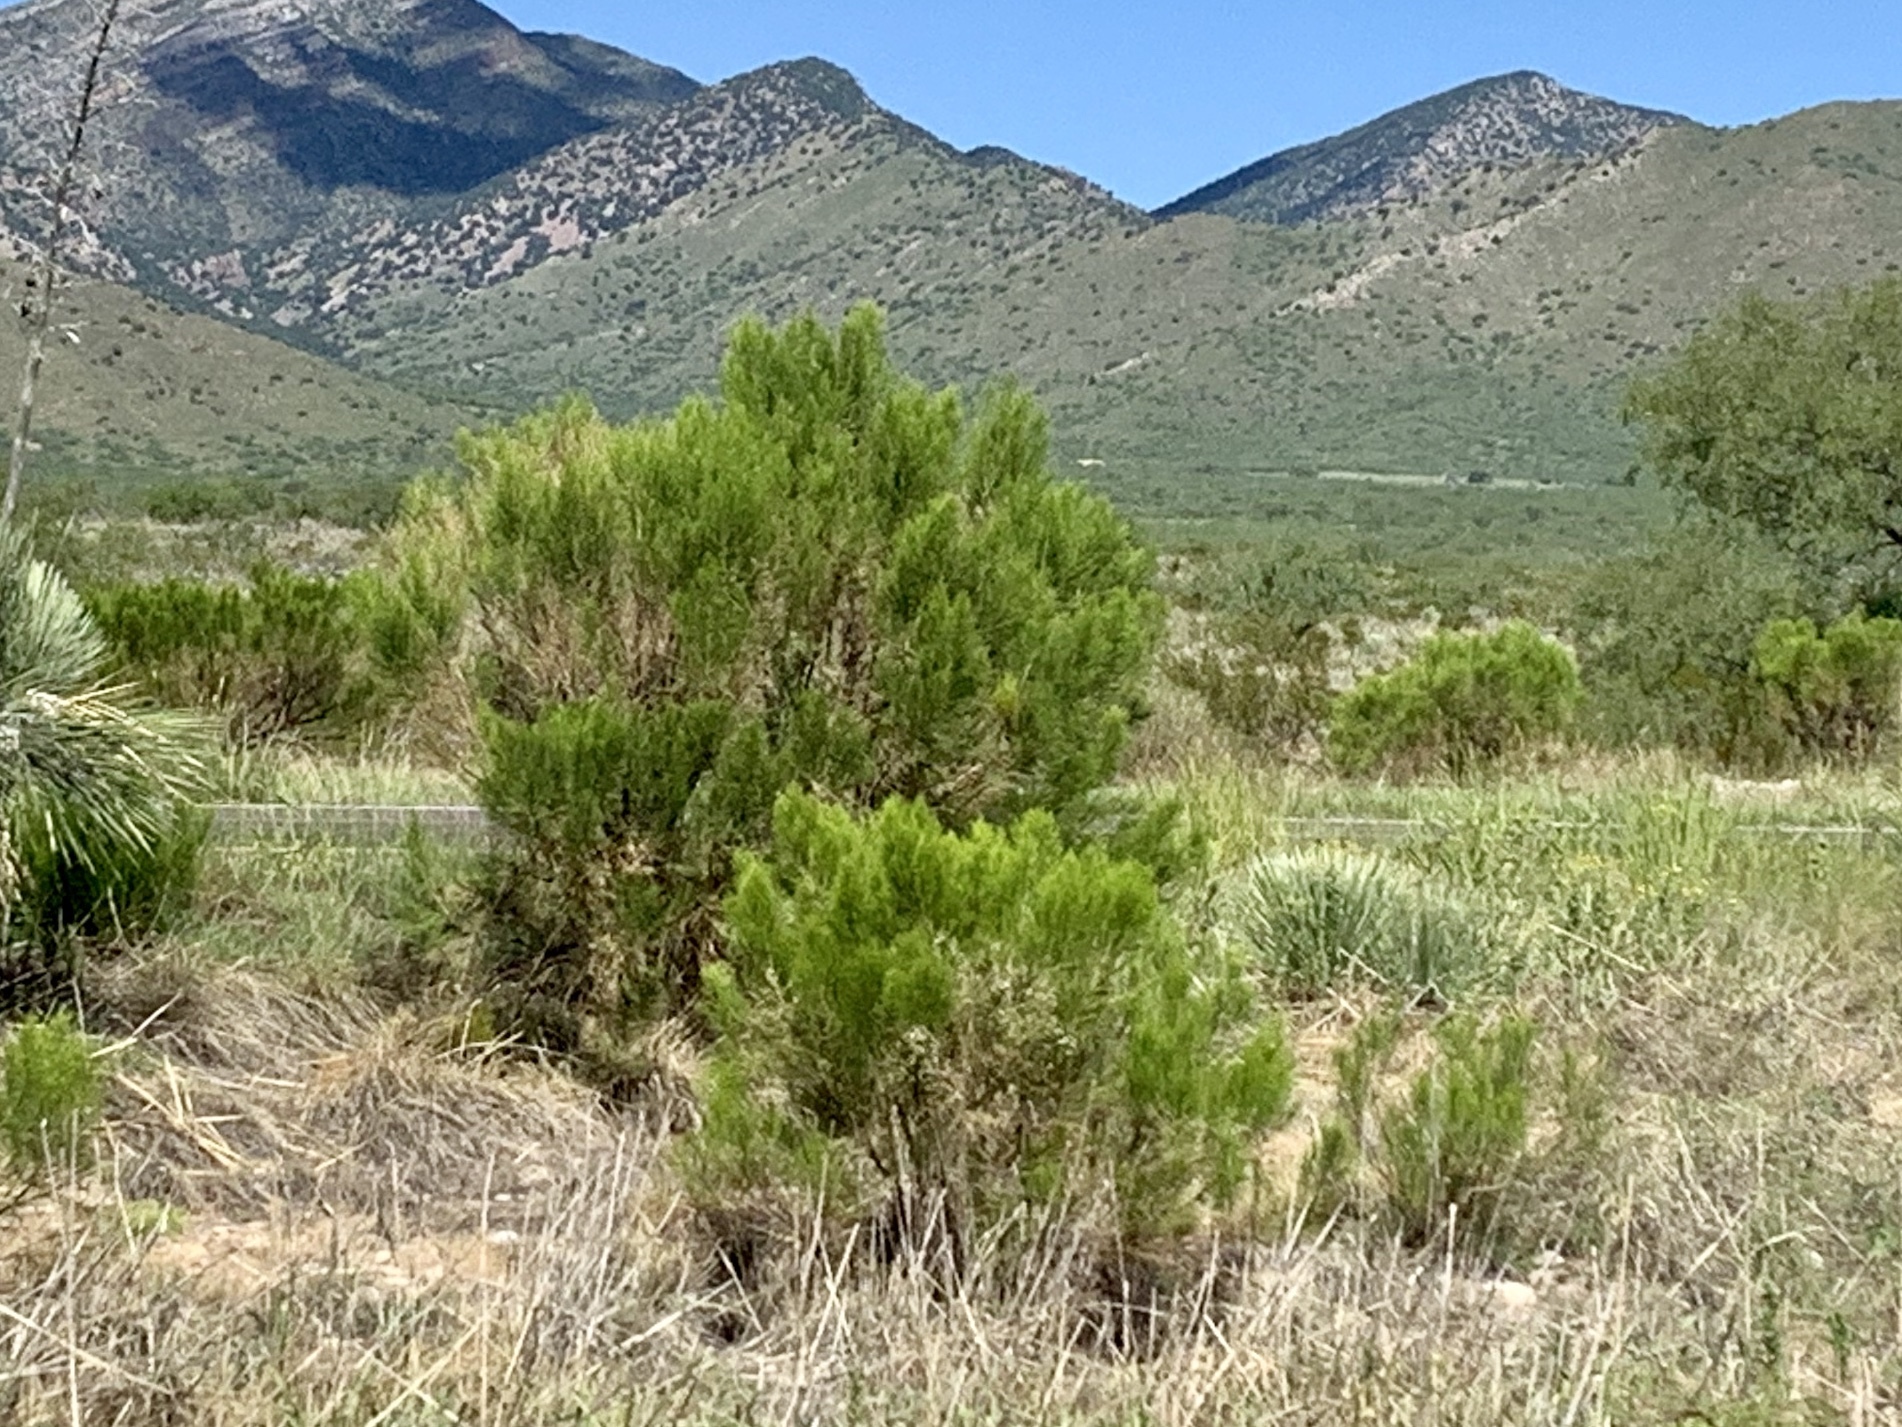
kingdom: Plantae
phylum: Tracheophyta
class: Magnoliopsida
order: Asterales
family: Asteraceae
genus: Baccharis
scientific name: Baccharis sarothroides
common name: Desert-broom
